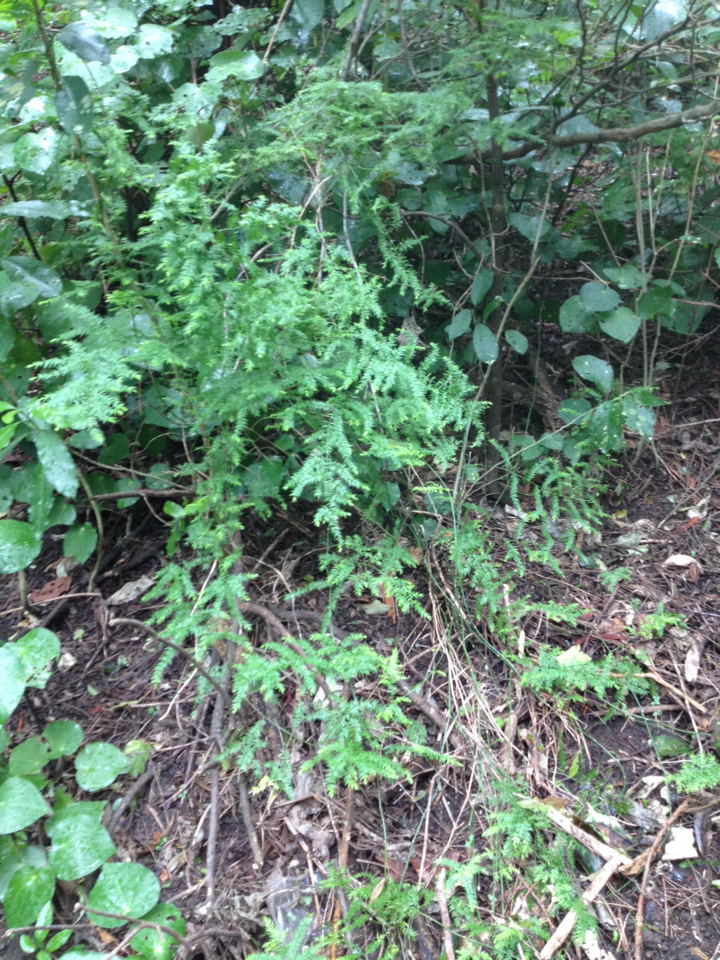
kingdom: Plantae
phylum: Tracheophyta
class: Liliopsida
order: Asparagales
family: Asparagaceae
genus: Asparagus
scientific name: Asparagus scandens
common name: Asparagus-fern
